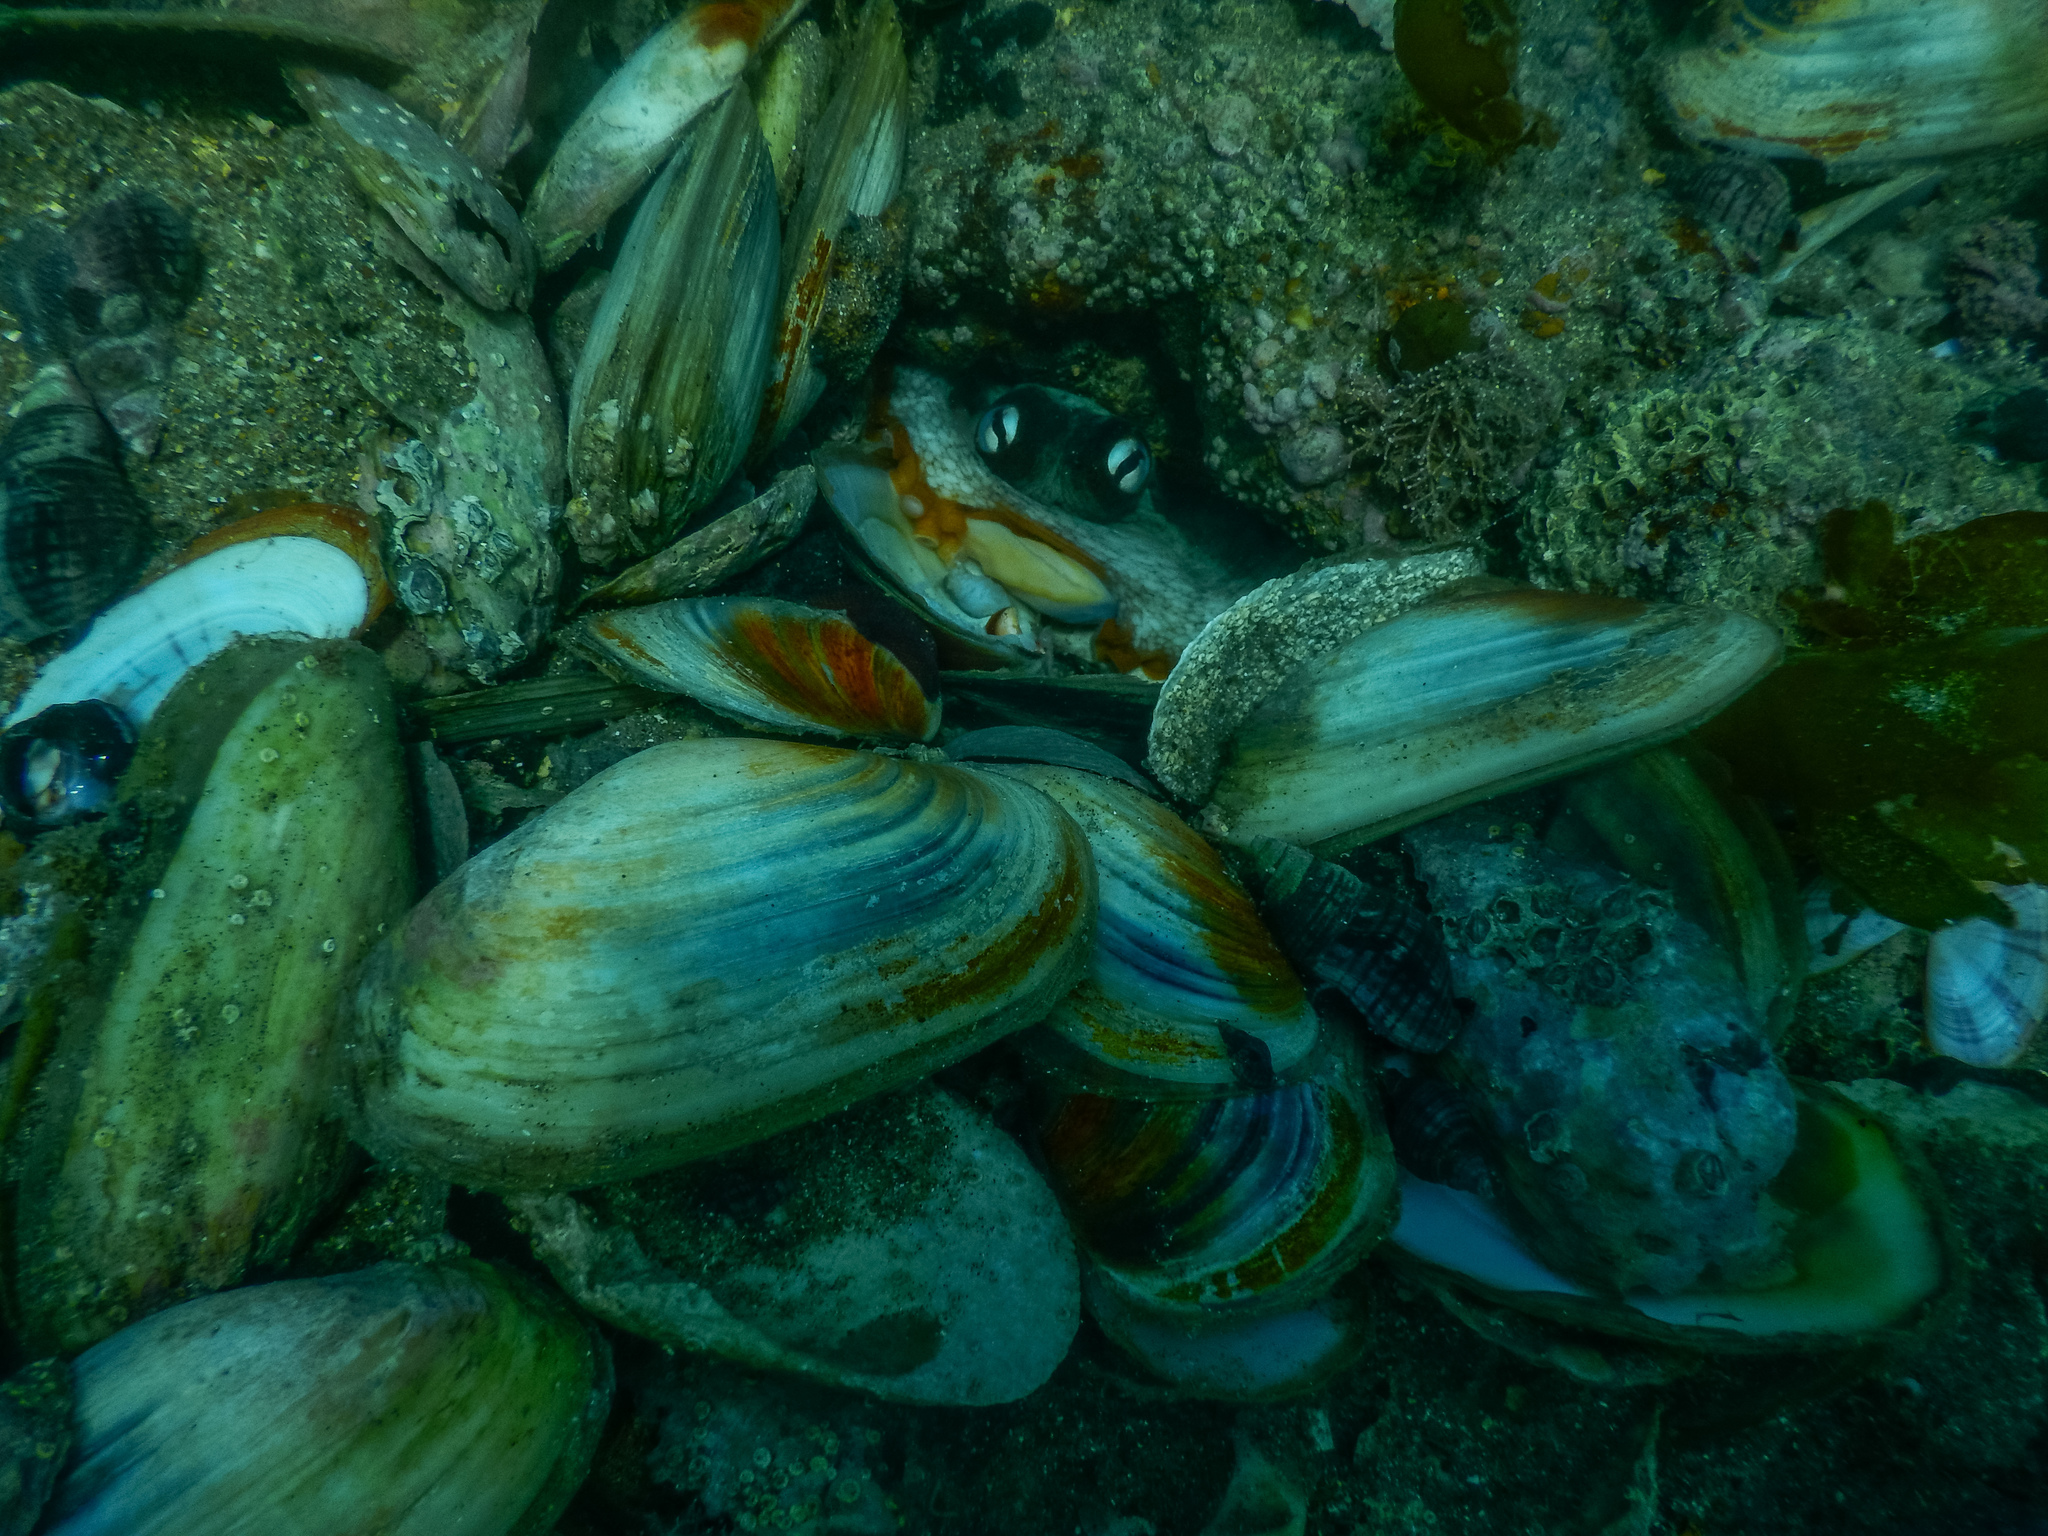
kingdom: Animalia
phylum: Mollusca
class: Cephalopoda
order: Octopoda
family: Octopodidae
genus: Octopus
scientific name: Octopus tetricus
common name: Sydney octopus
